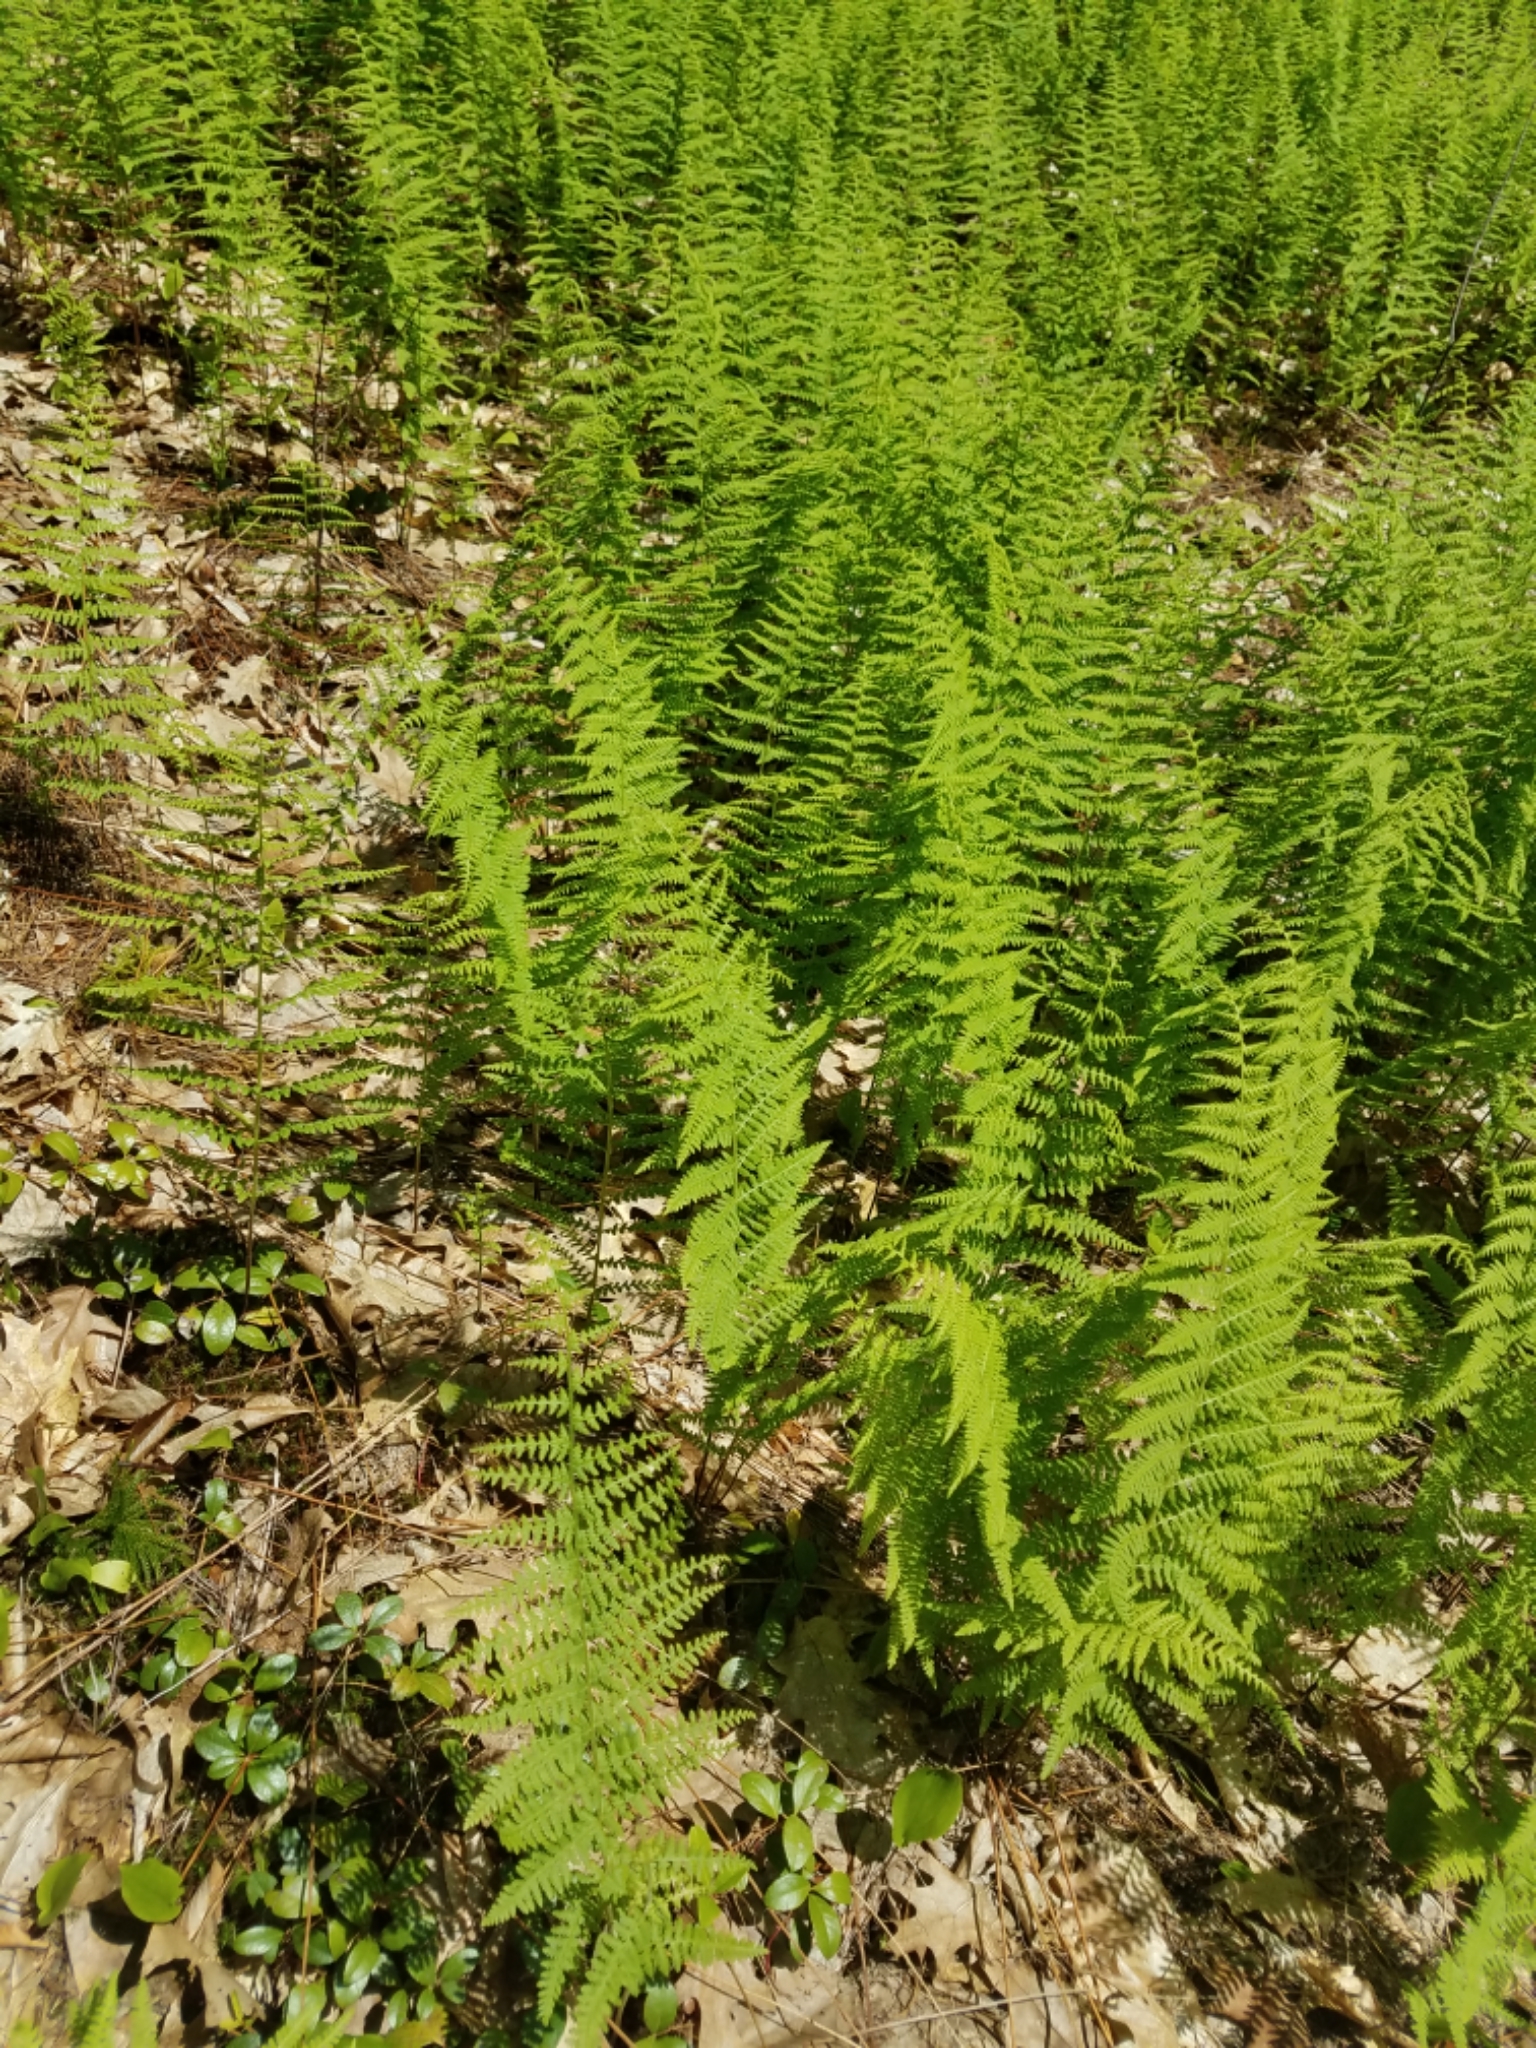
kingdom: Plantae
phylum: Tracheophyta
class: Polypodiopsida
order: Polypodiales
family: Dennstaedtiaceae
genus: Sitobolium
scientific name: Sitobolium punctilobum
